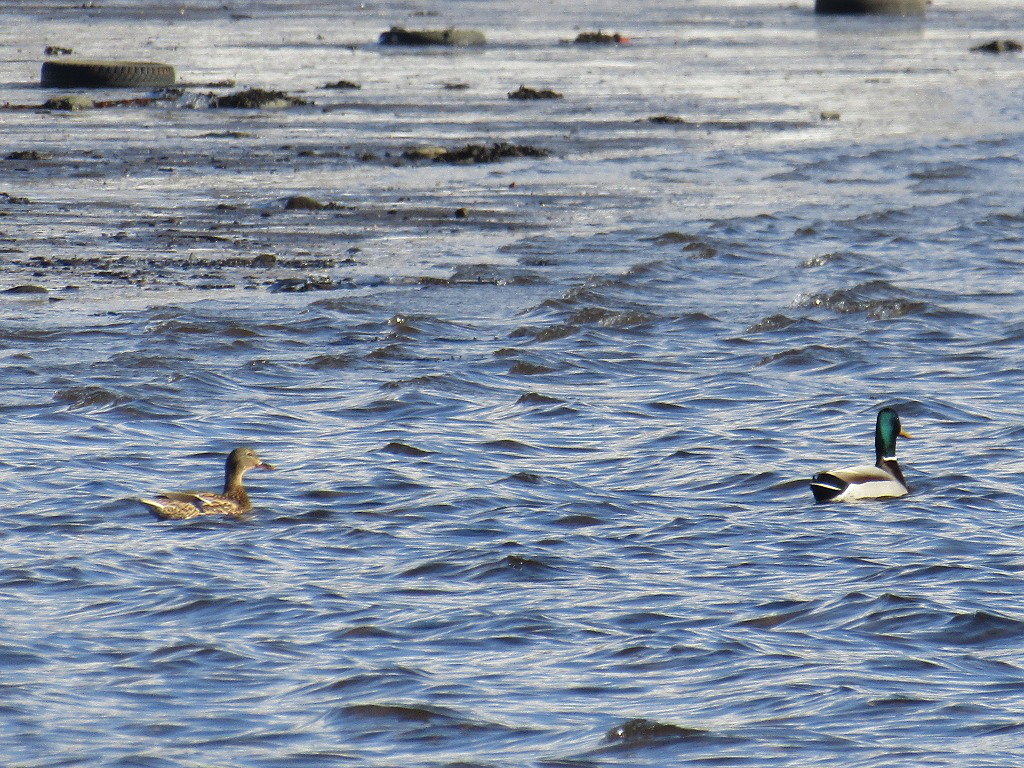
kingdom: Animalia
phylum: Chordata
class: Aves
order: Anseriformes
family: Anatidae
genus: Anas
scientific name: Anas platyrhynchos
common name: Mallard
